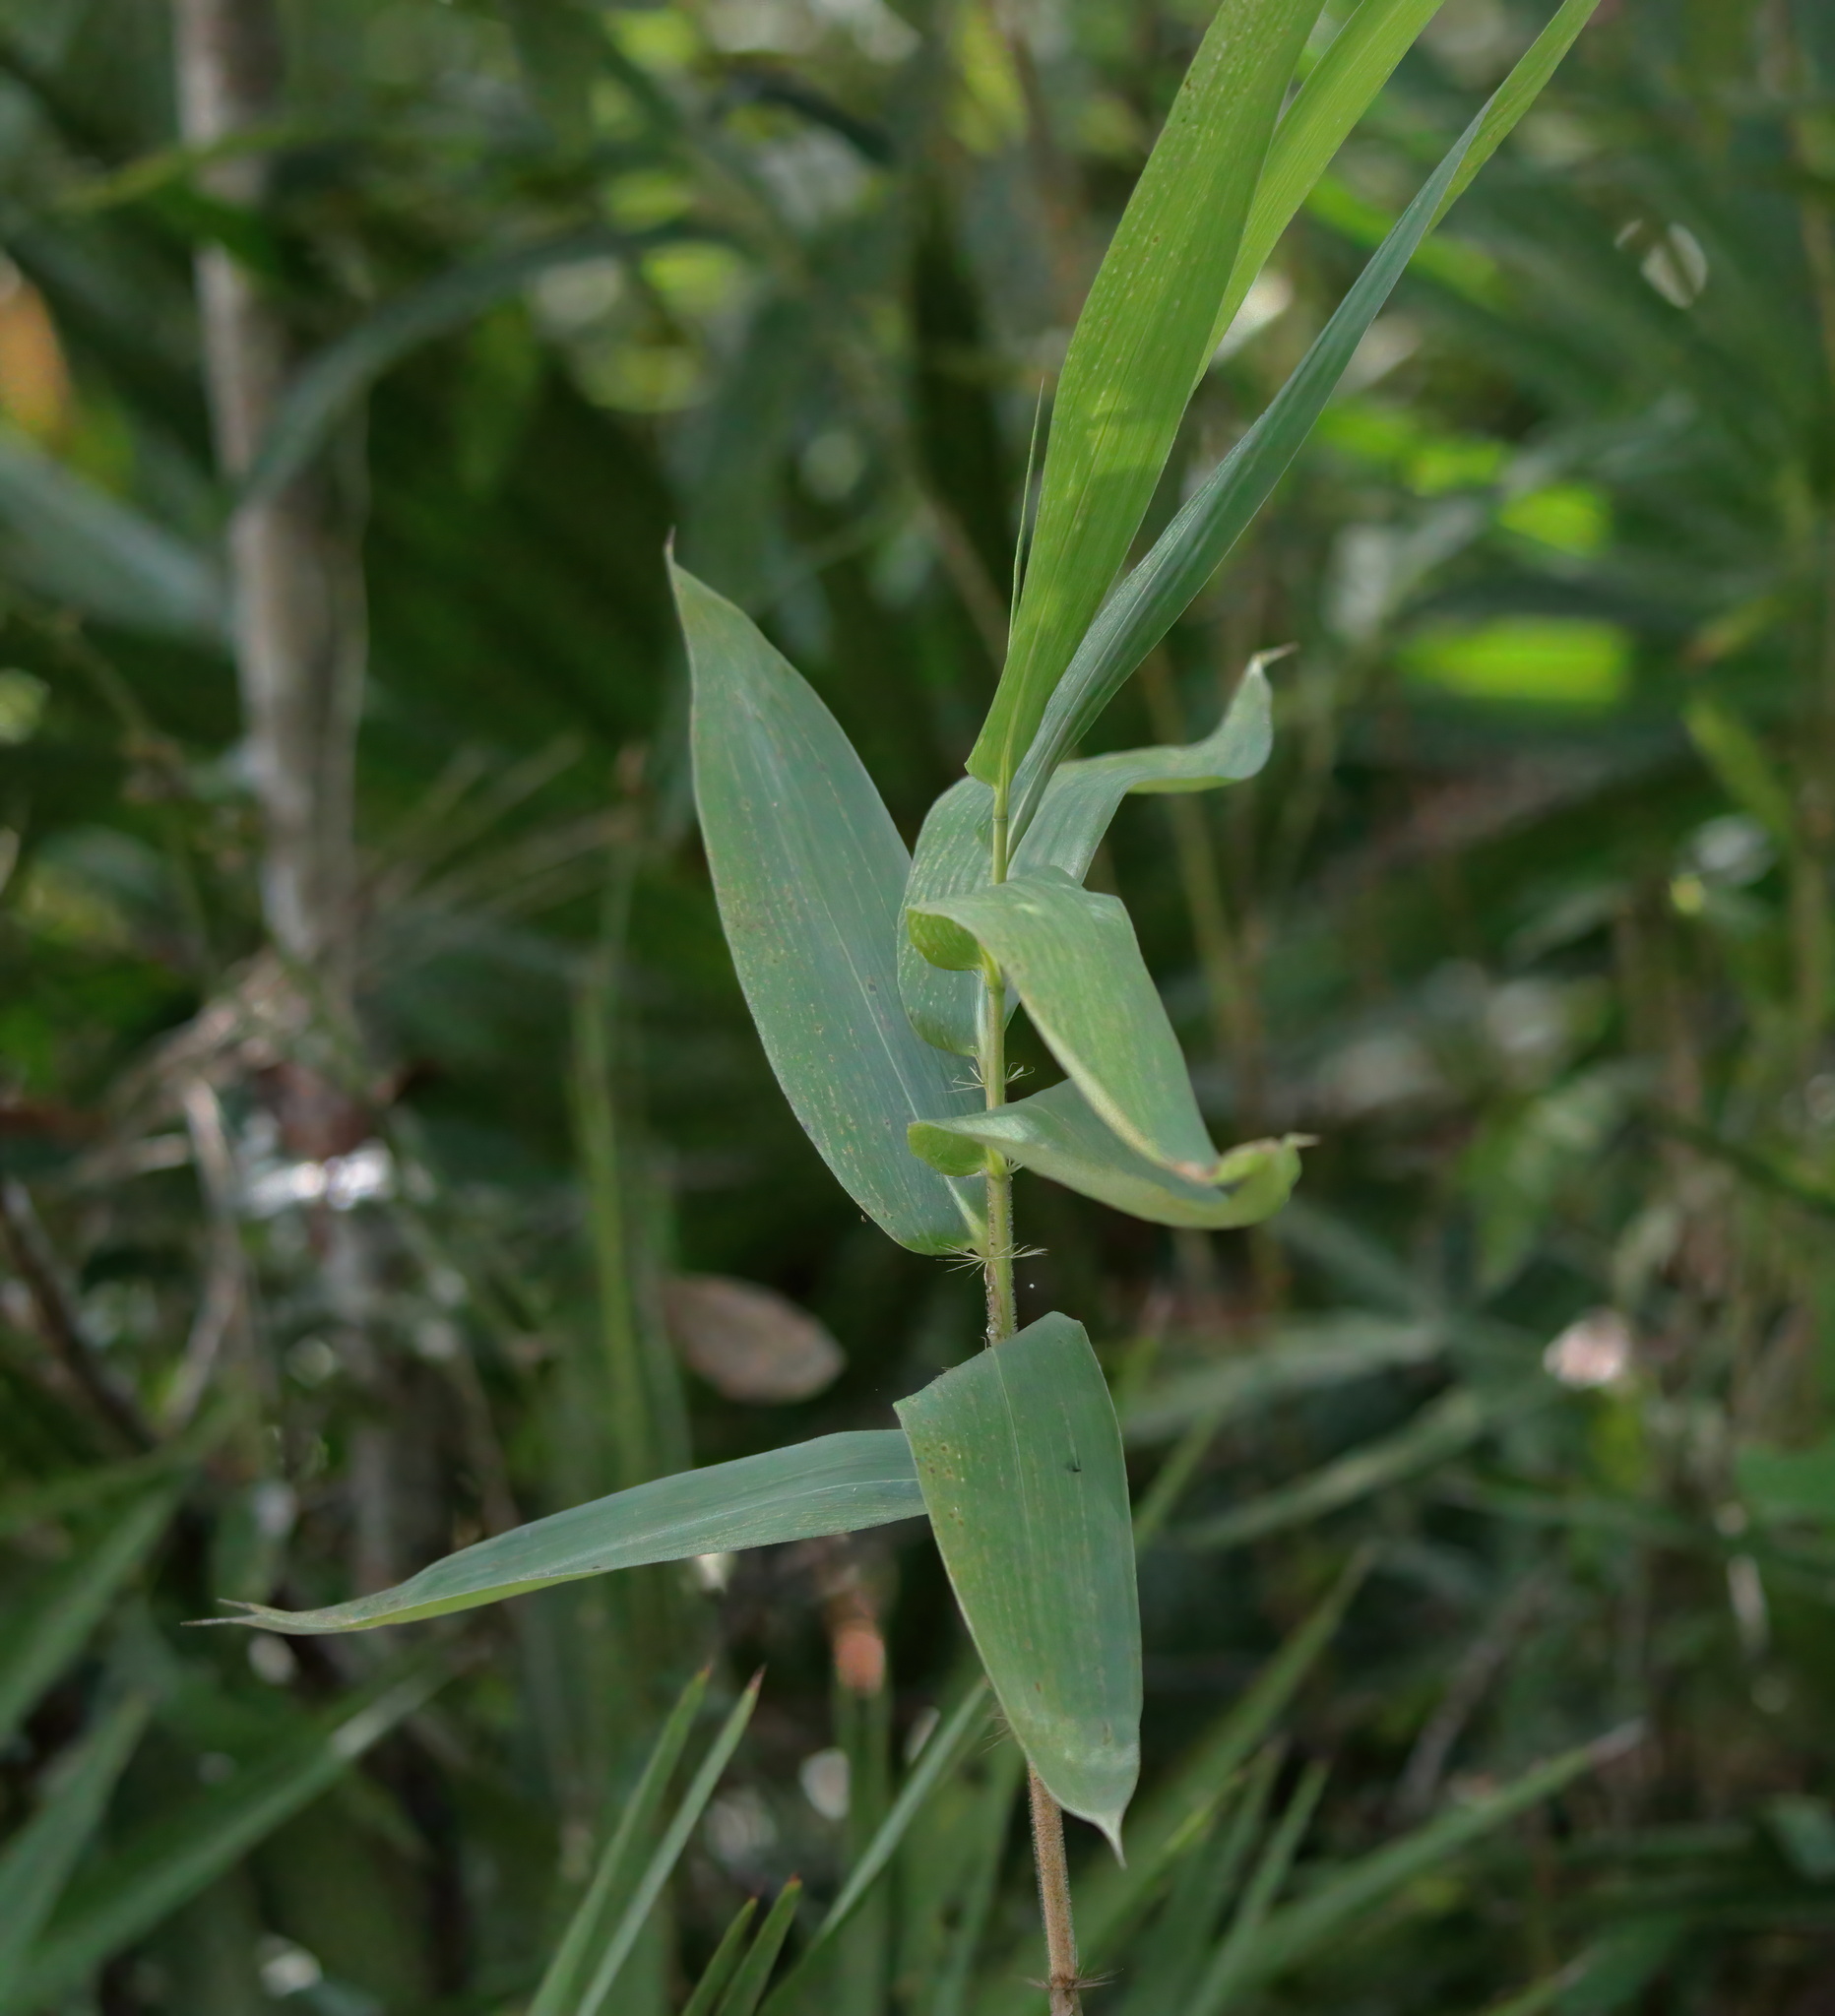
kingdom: Plantae
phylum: Tracheophyta
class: Liliopsida
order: Poales
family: Poaceae
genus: Arundinaria
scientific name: Arundinaria tecta
